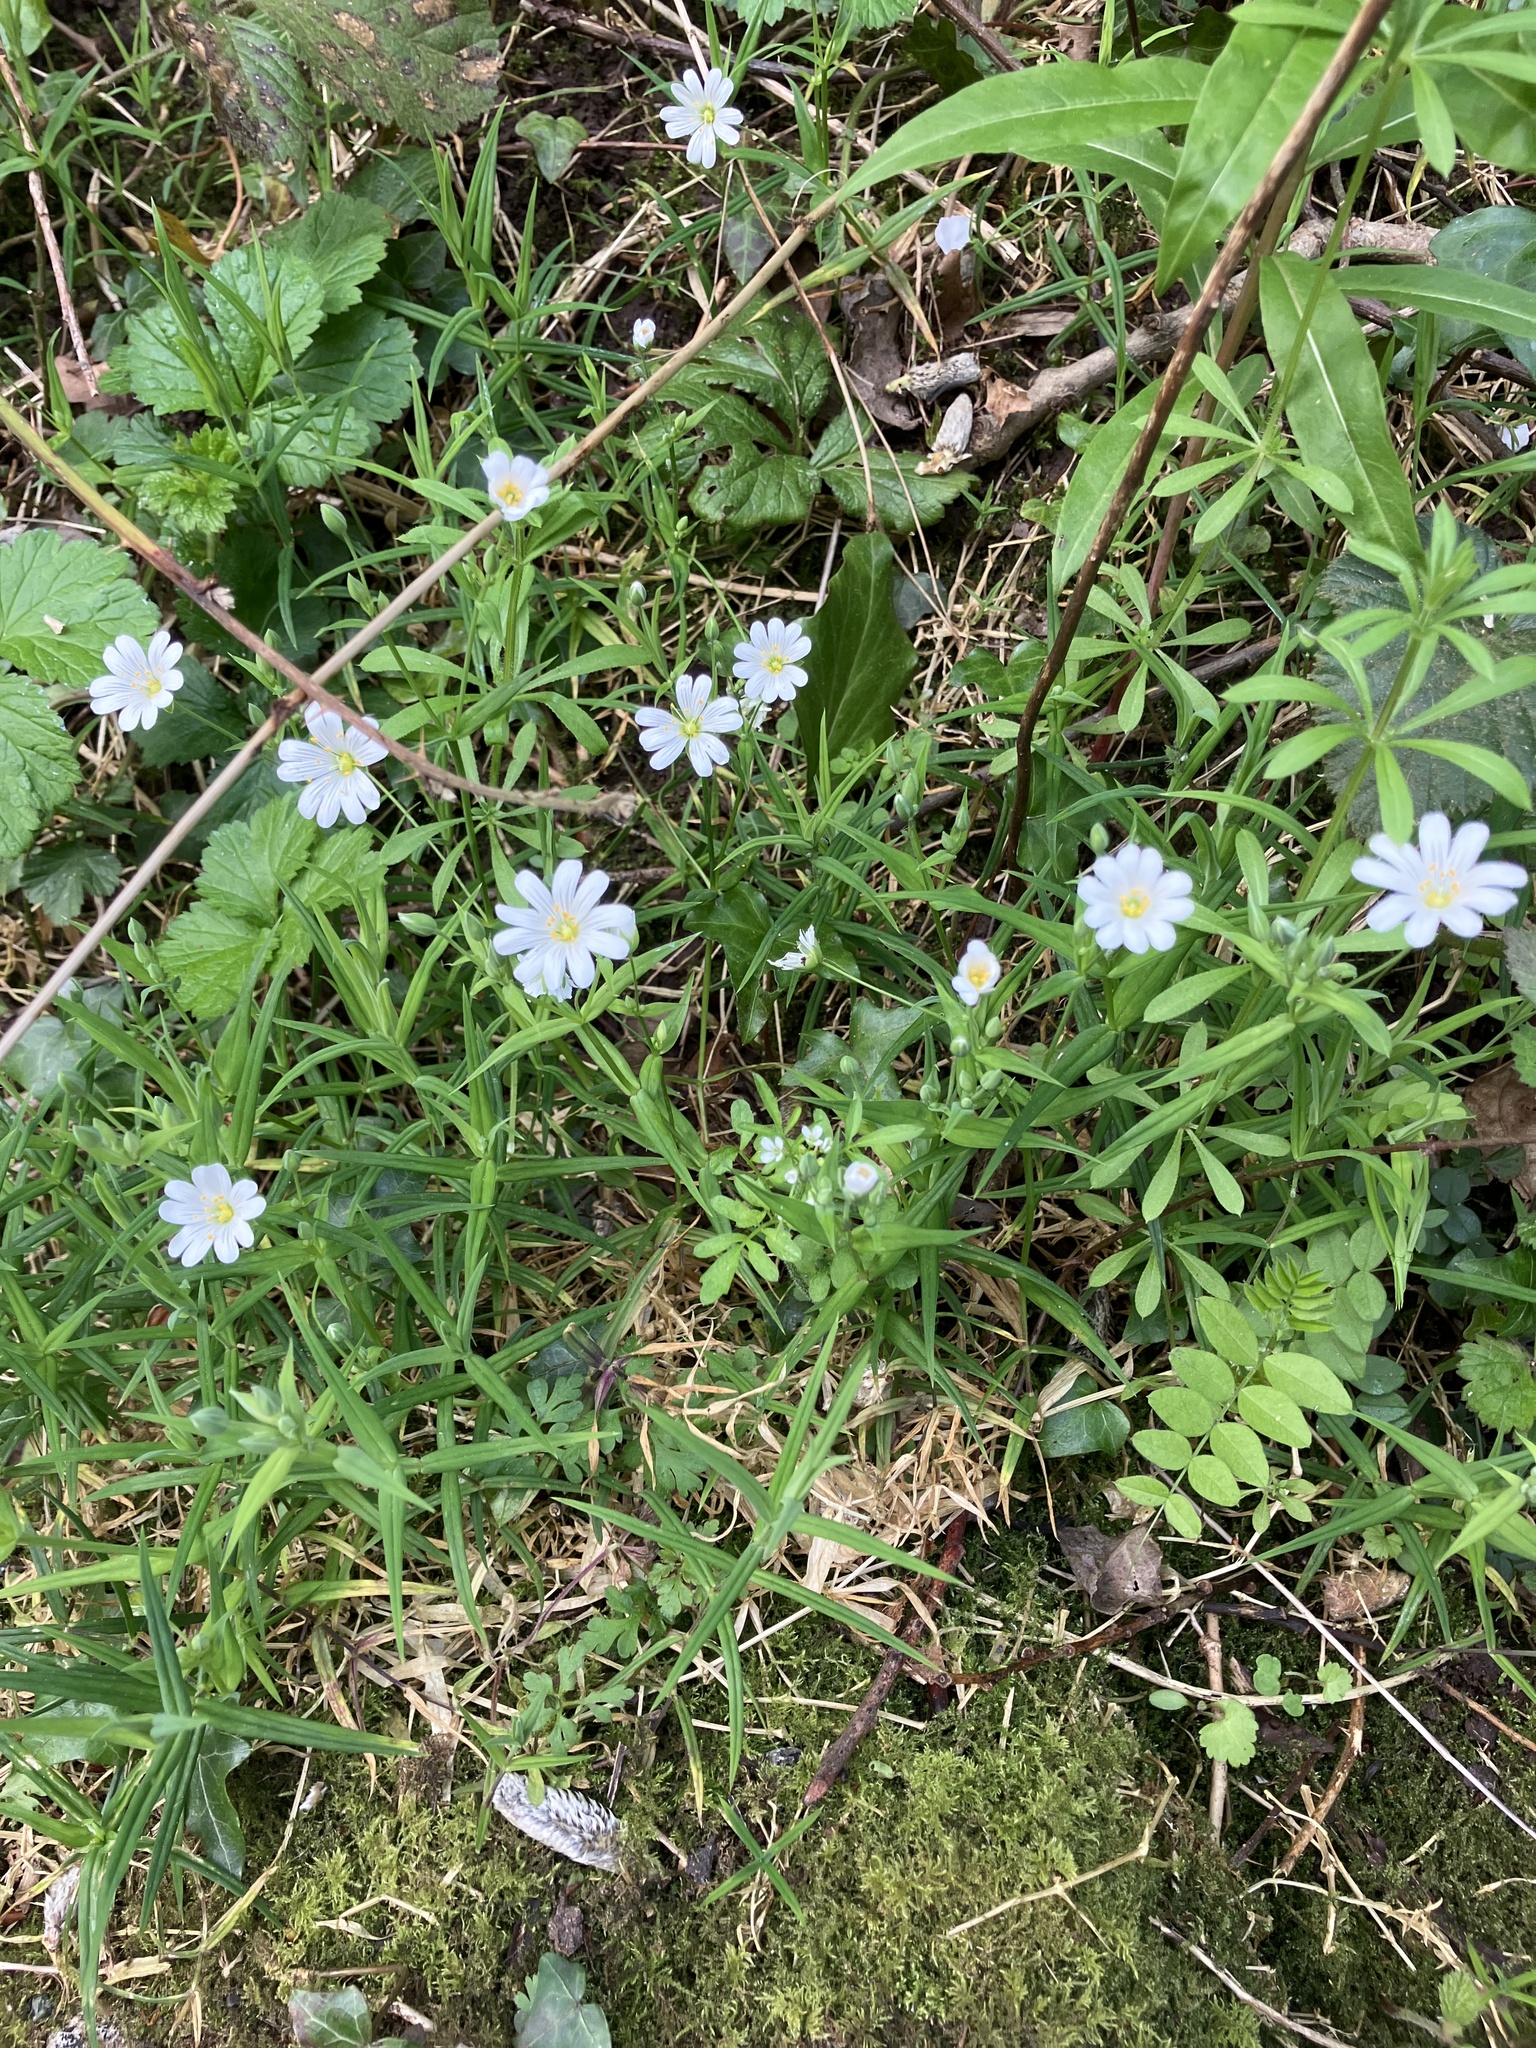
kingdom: Plantae
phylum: Tracheophyta
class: Magnoliopsida
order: Caryophyllales
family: Caryophyllaceae
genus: Rabelera
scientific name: Rabelera holostea
